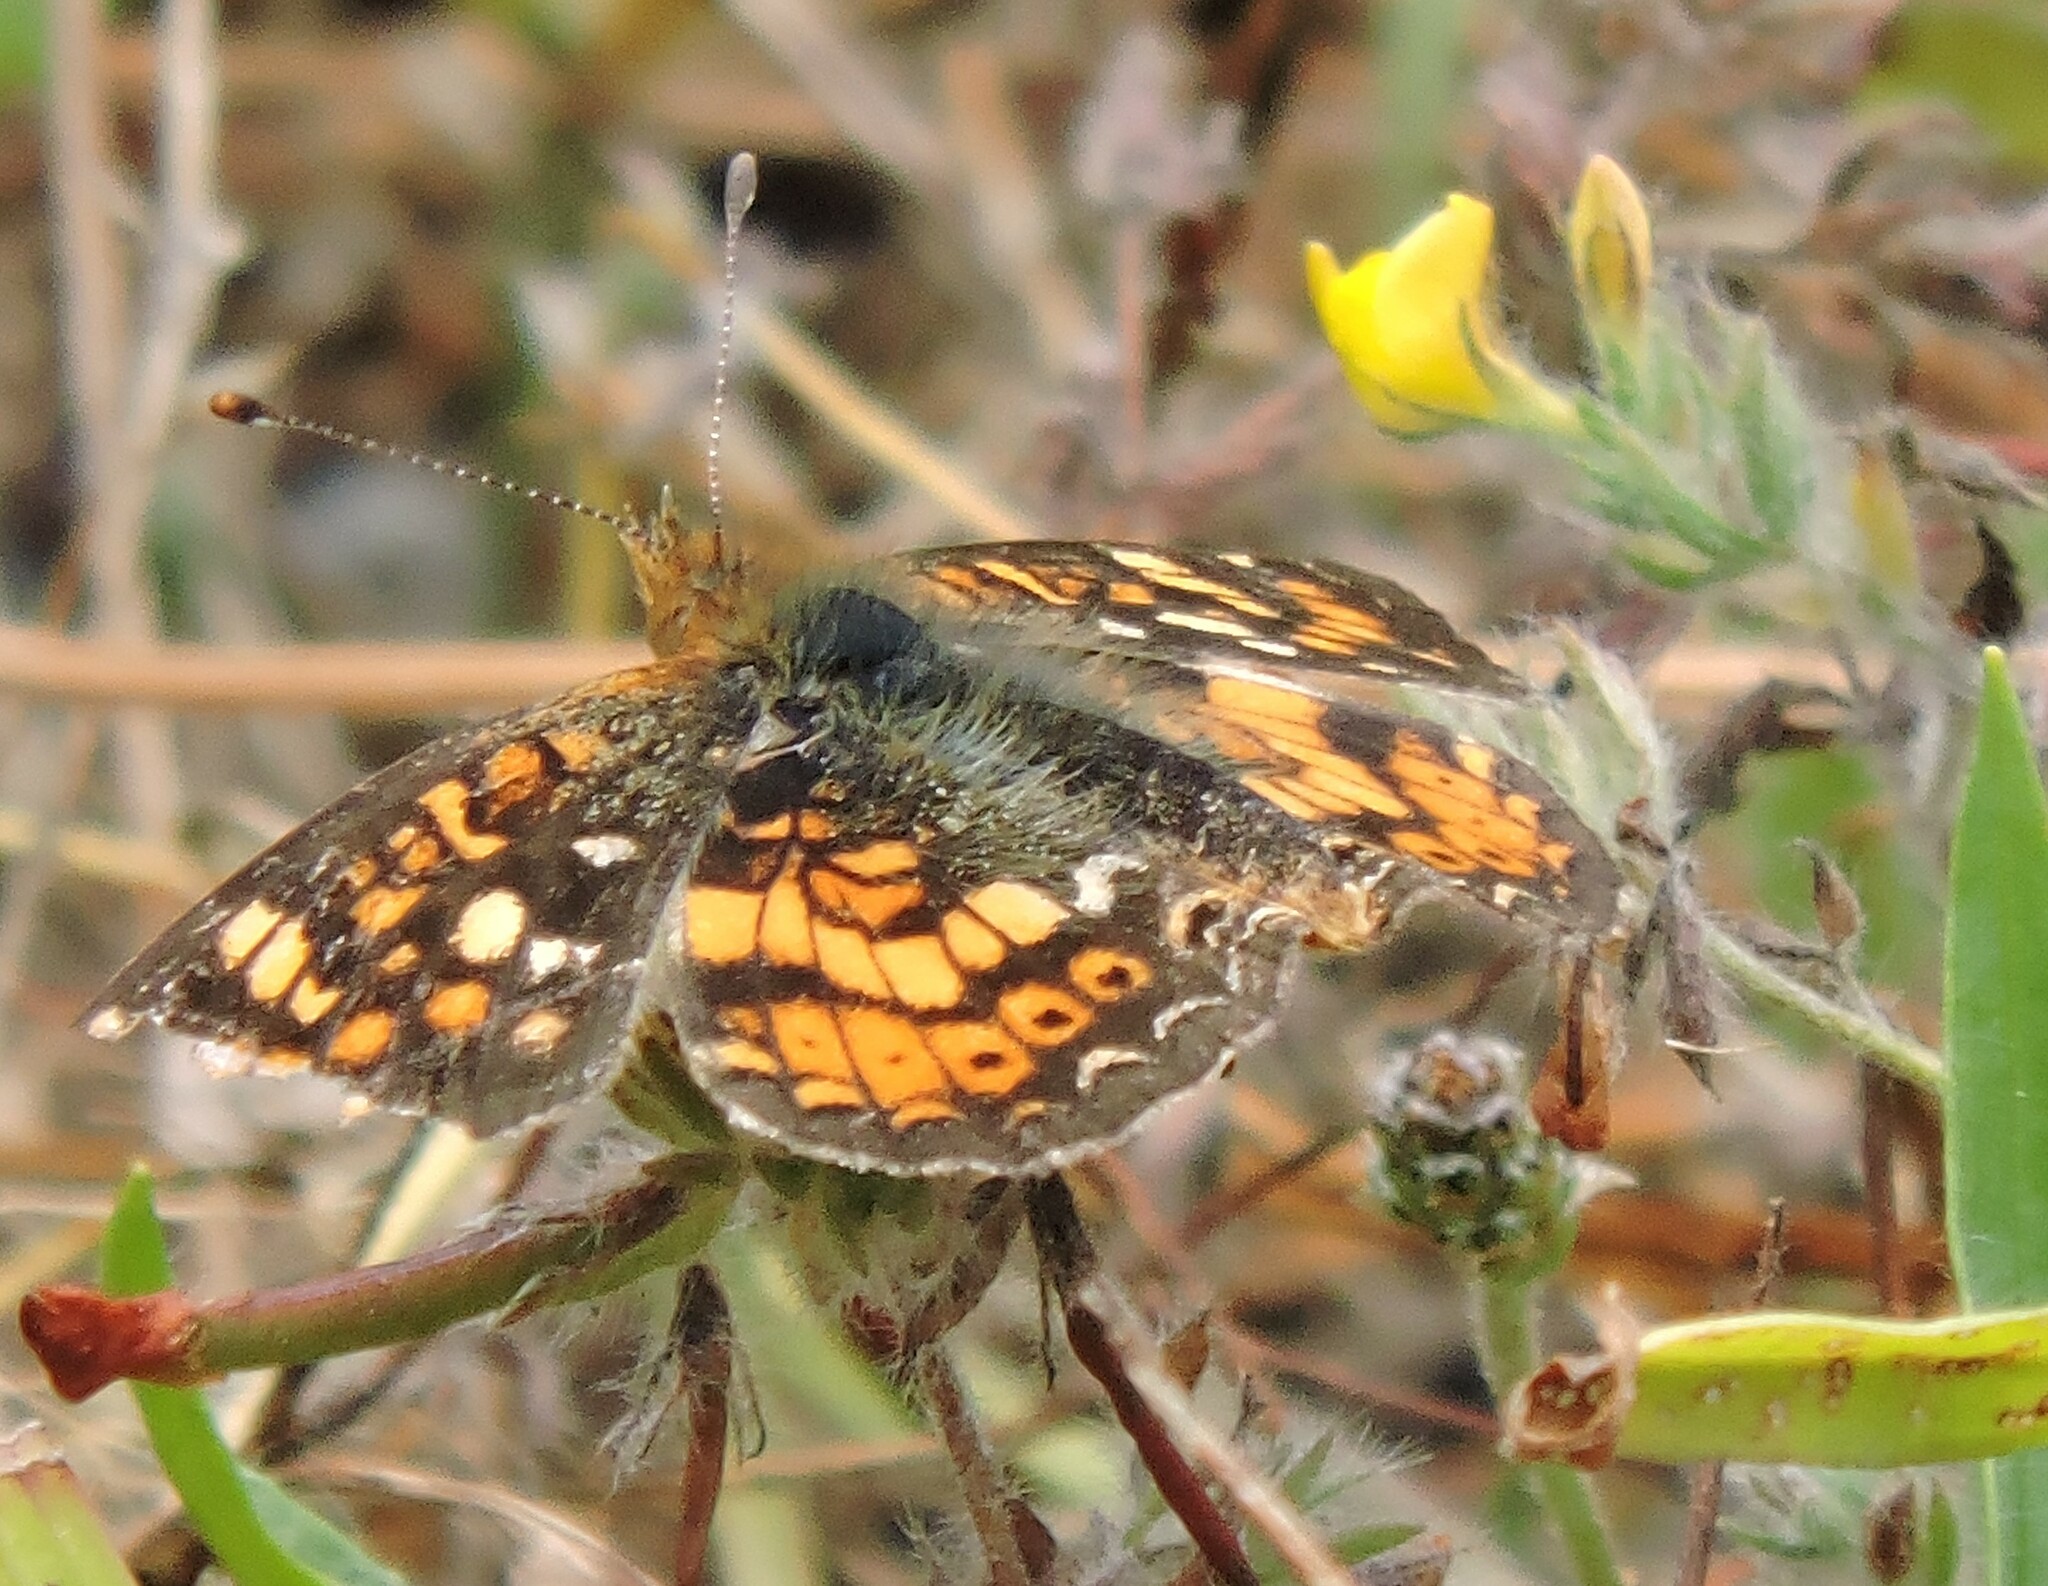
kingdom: Animalia
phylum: Arthropoda
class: Insecta
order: Lepidoptera
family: Nymphalidae
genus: Phyciodes
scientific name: Phyciodes tharos
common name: Pearl crescent
